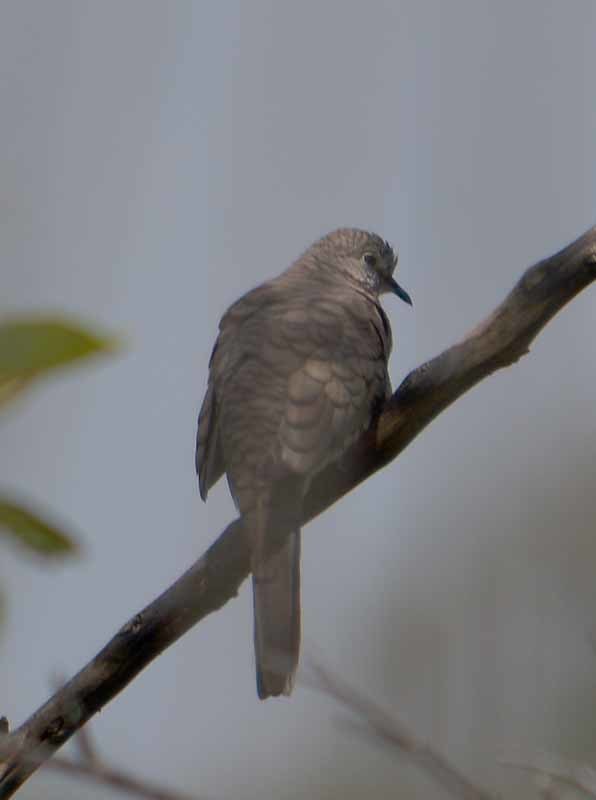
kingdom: Animalia
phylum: Chordata
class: Aves
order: Columbiformes
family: Columbidae
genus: Columbina
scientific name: Columbina inca
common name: Inca dove
